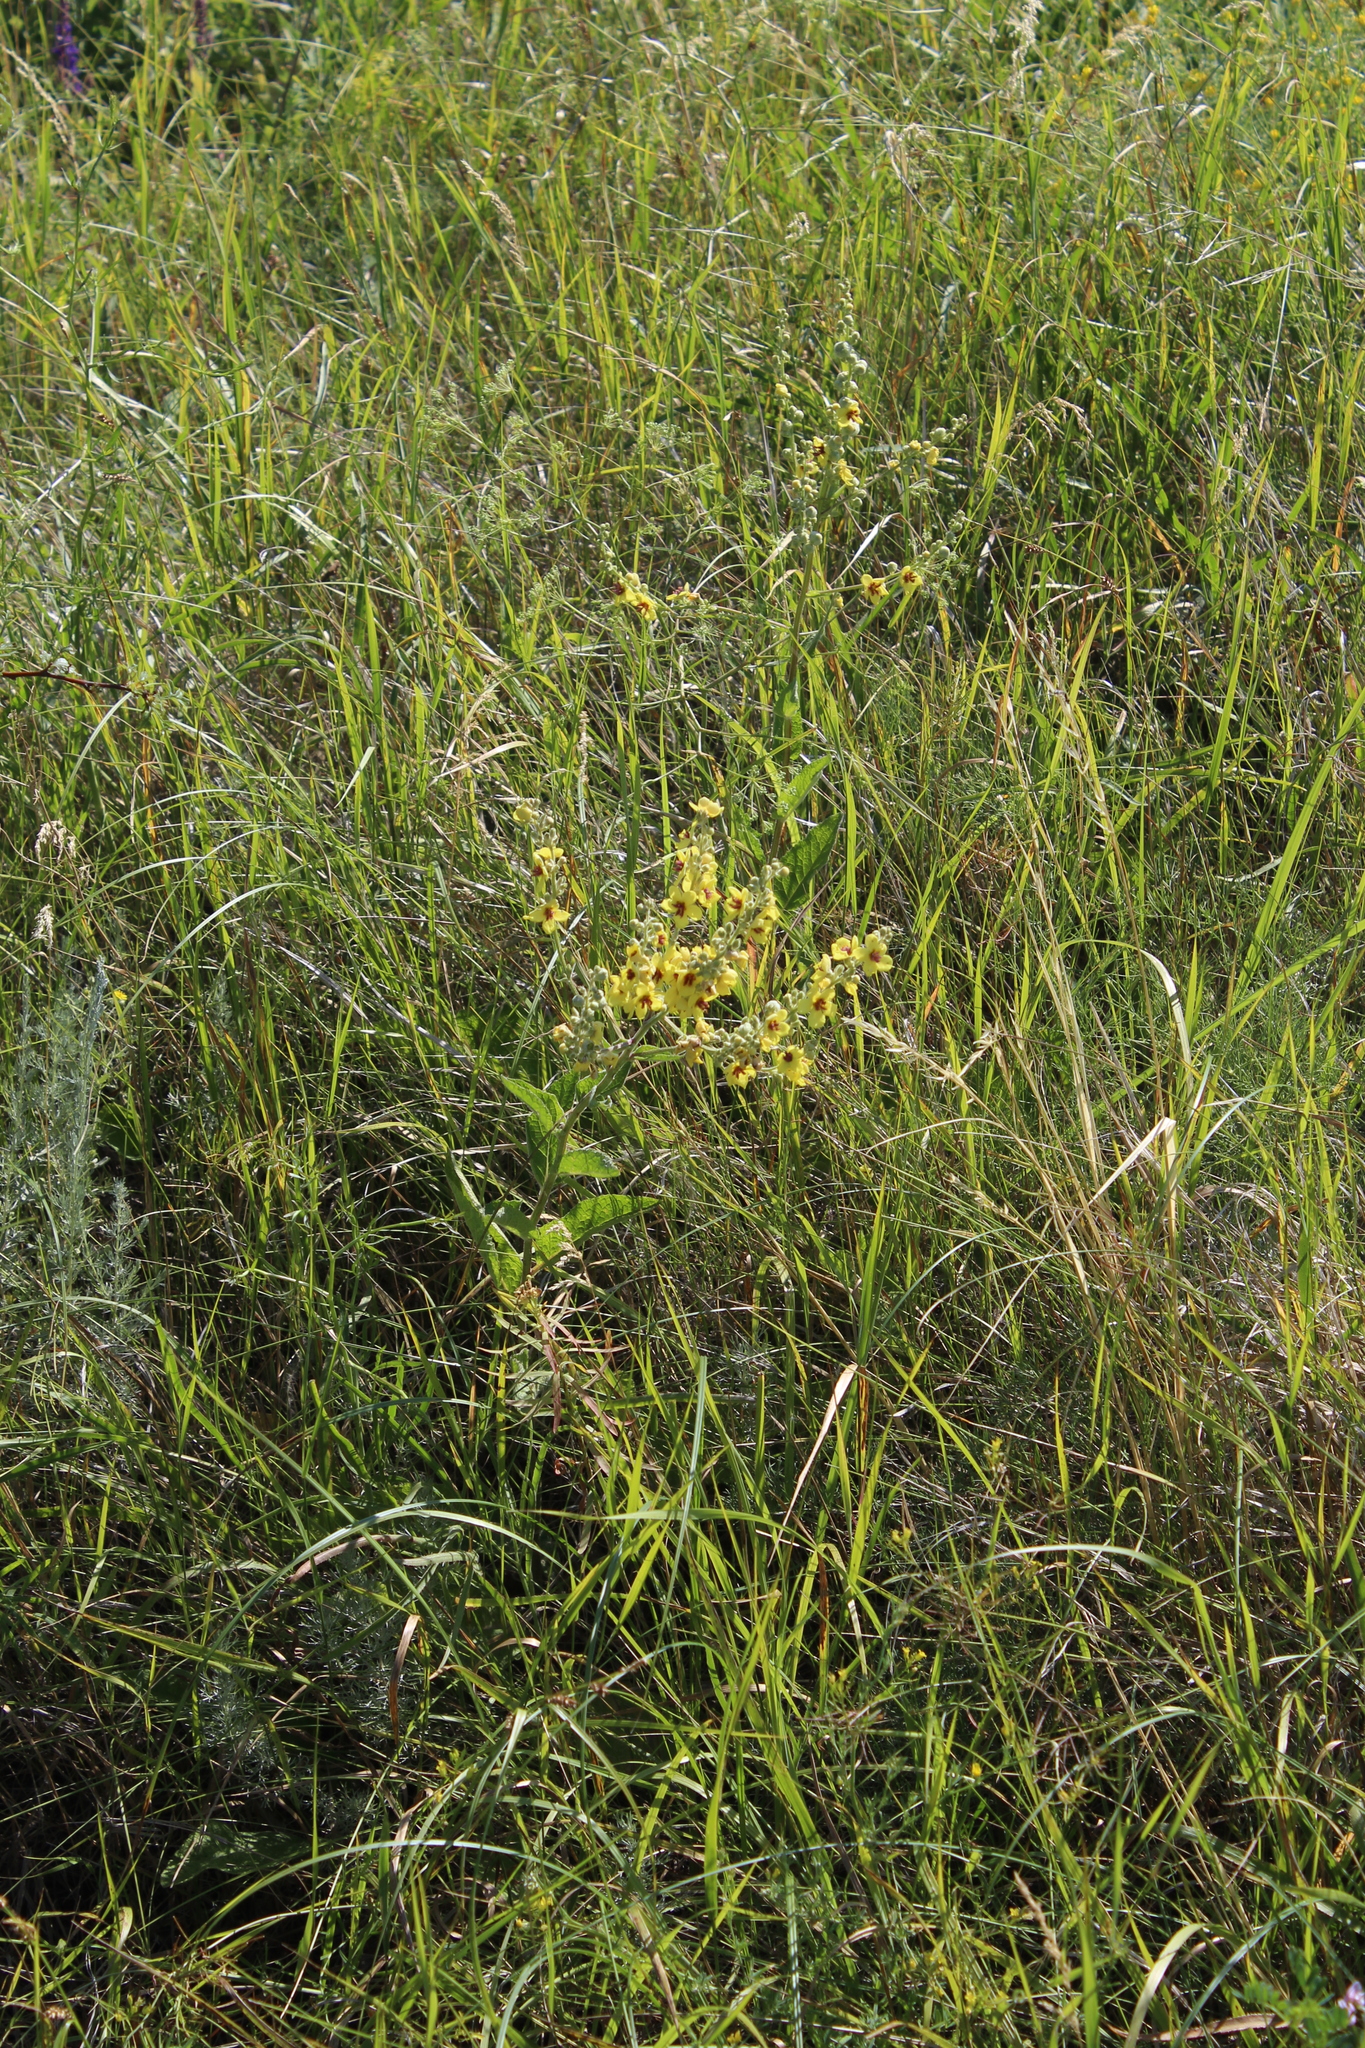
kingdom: Plantae
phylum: Tracheophyta
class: Magnoliopsida
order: Lamiales
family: Scrophulariaceae
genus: Verbascum
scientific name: Verbascum chaixii
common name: Nettle-leaved mullein
